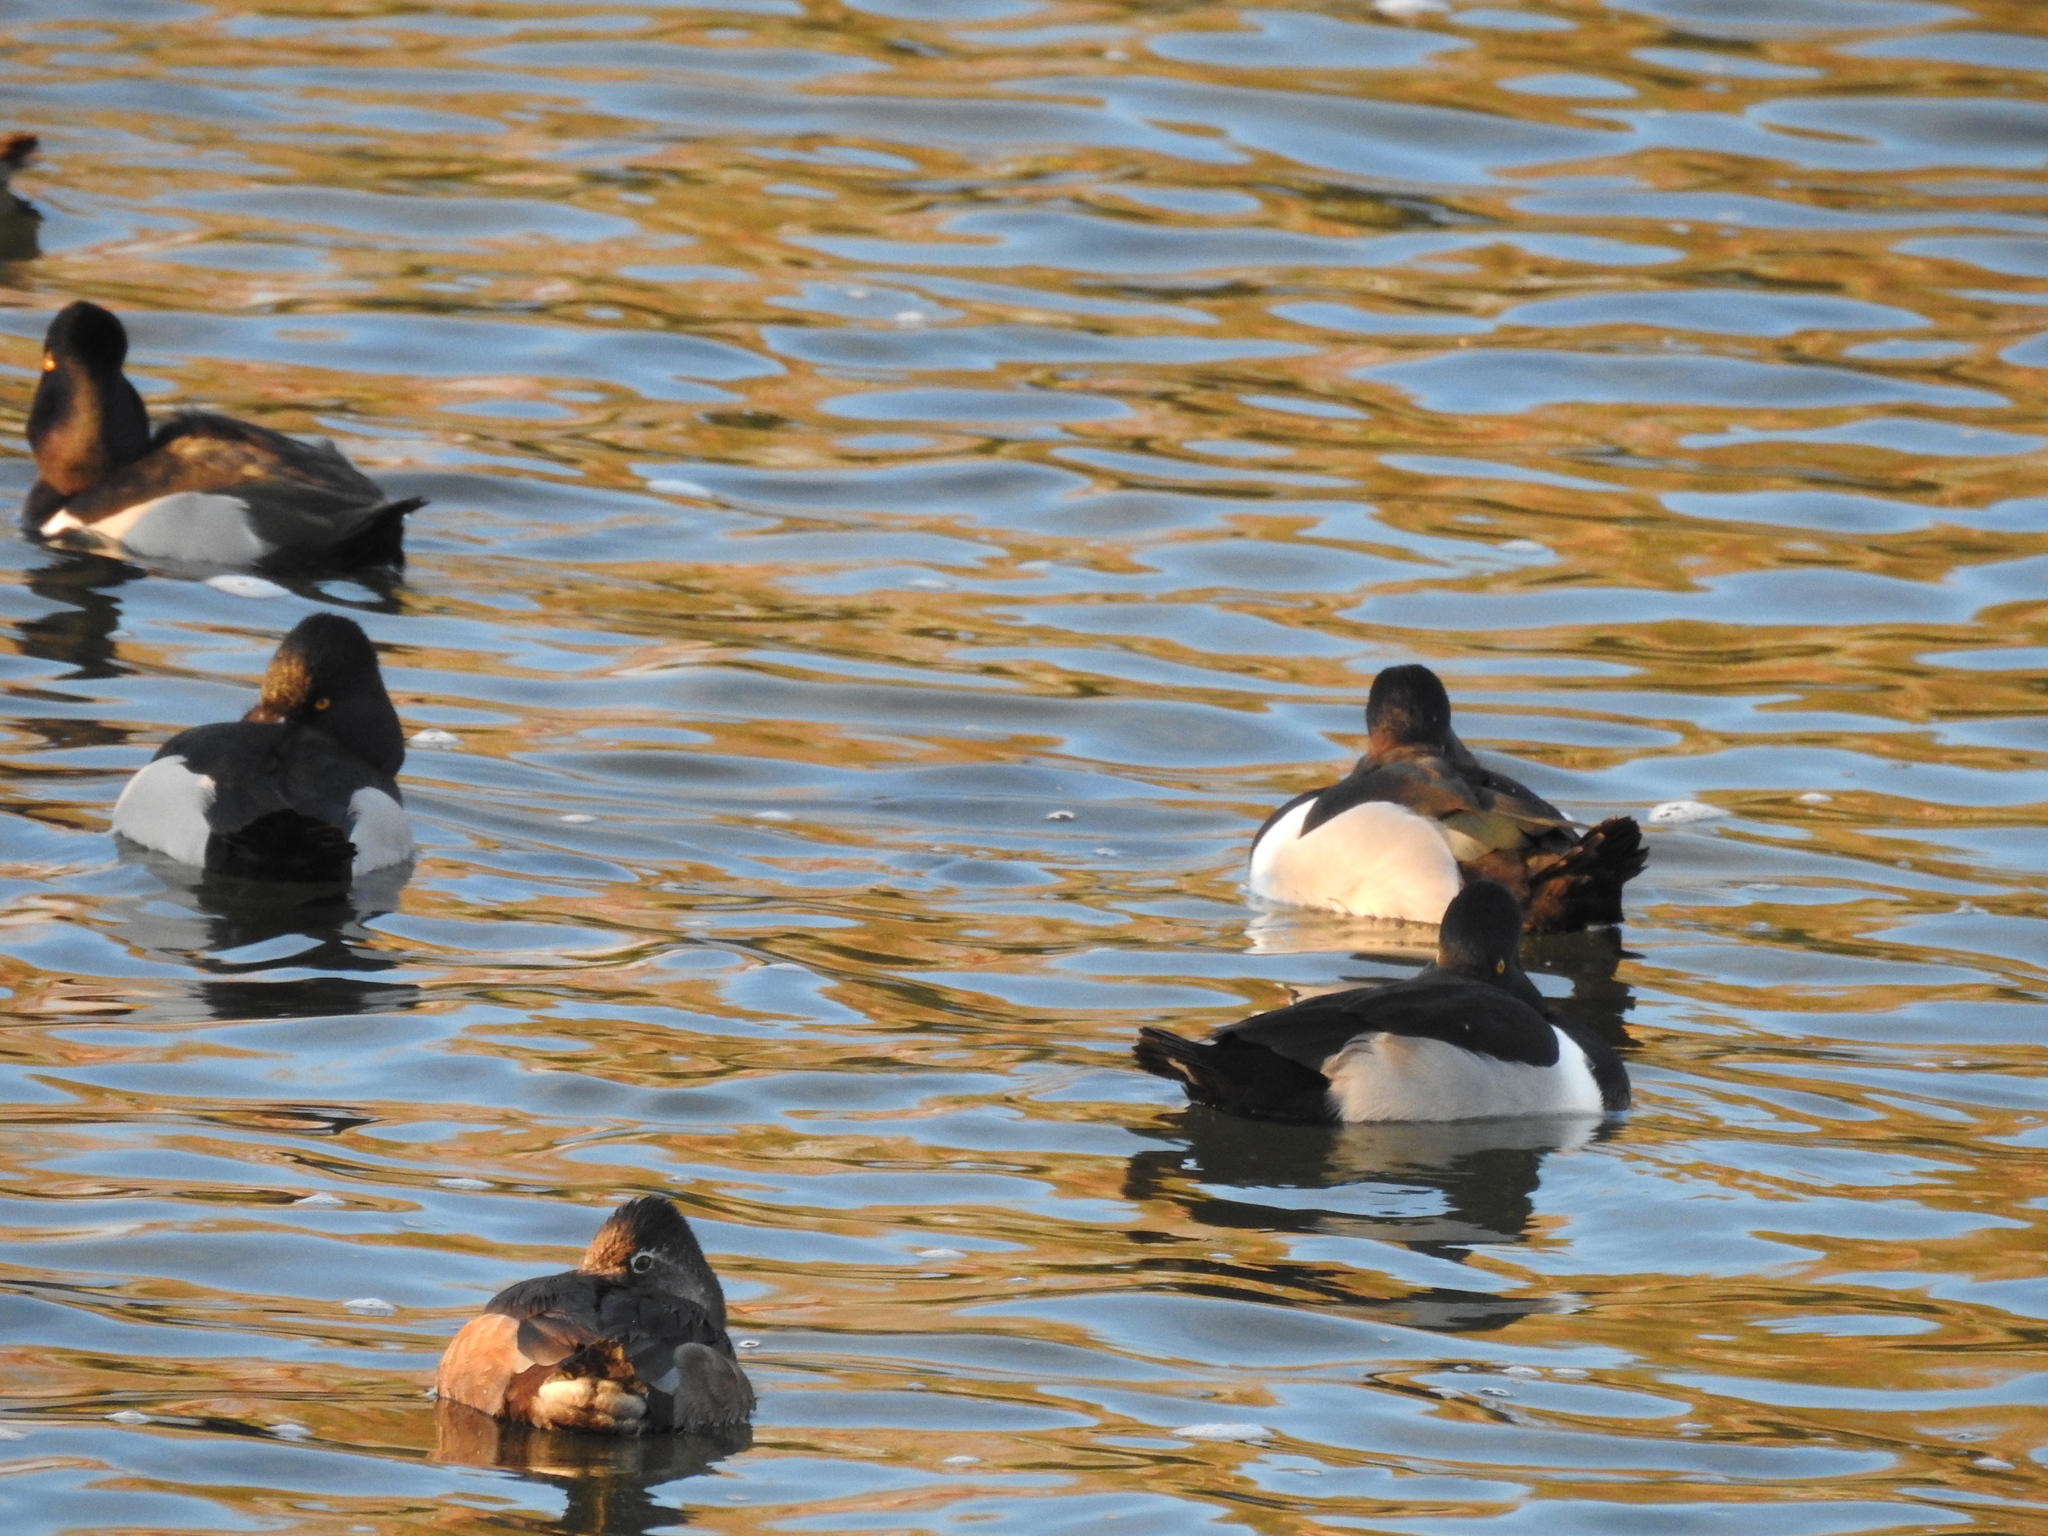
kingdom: Animalia
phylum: Chordata
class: Aves
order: Anseriformes
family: Anatidae
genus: Aythya
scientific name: Aythya collaris
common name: Ring-necked duck
